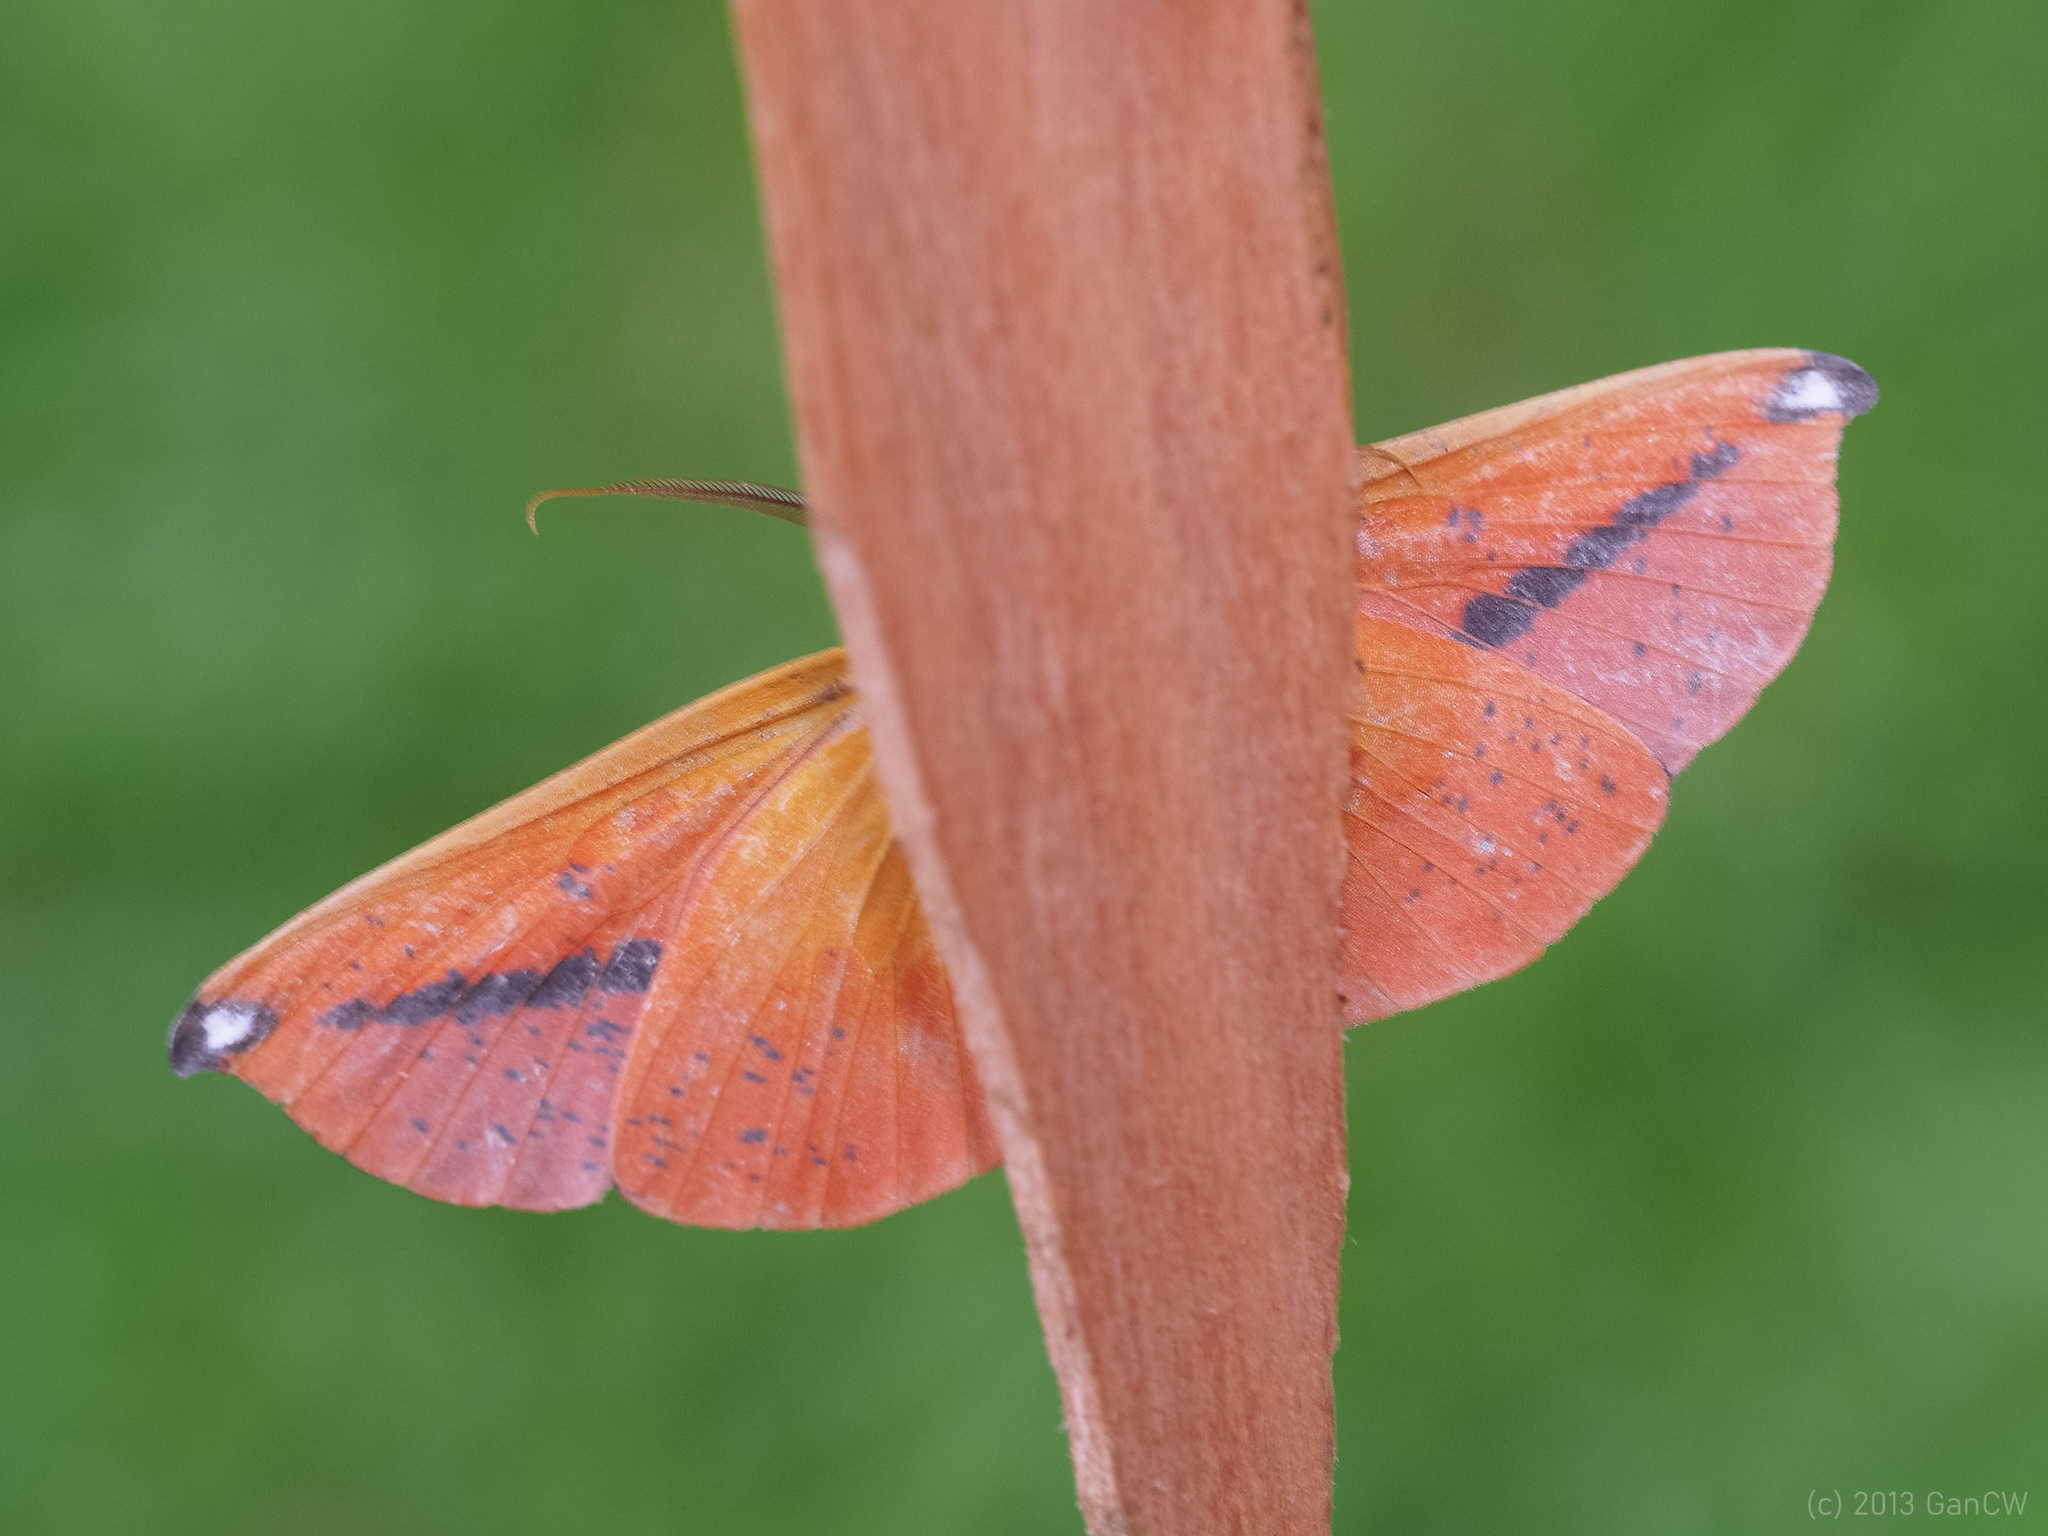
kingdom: Animalia
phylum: Arthropoda
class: Insecta
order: Lepidoptera
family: Geometridae
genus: Omiza
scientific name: Omiza lycoraria
